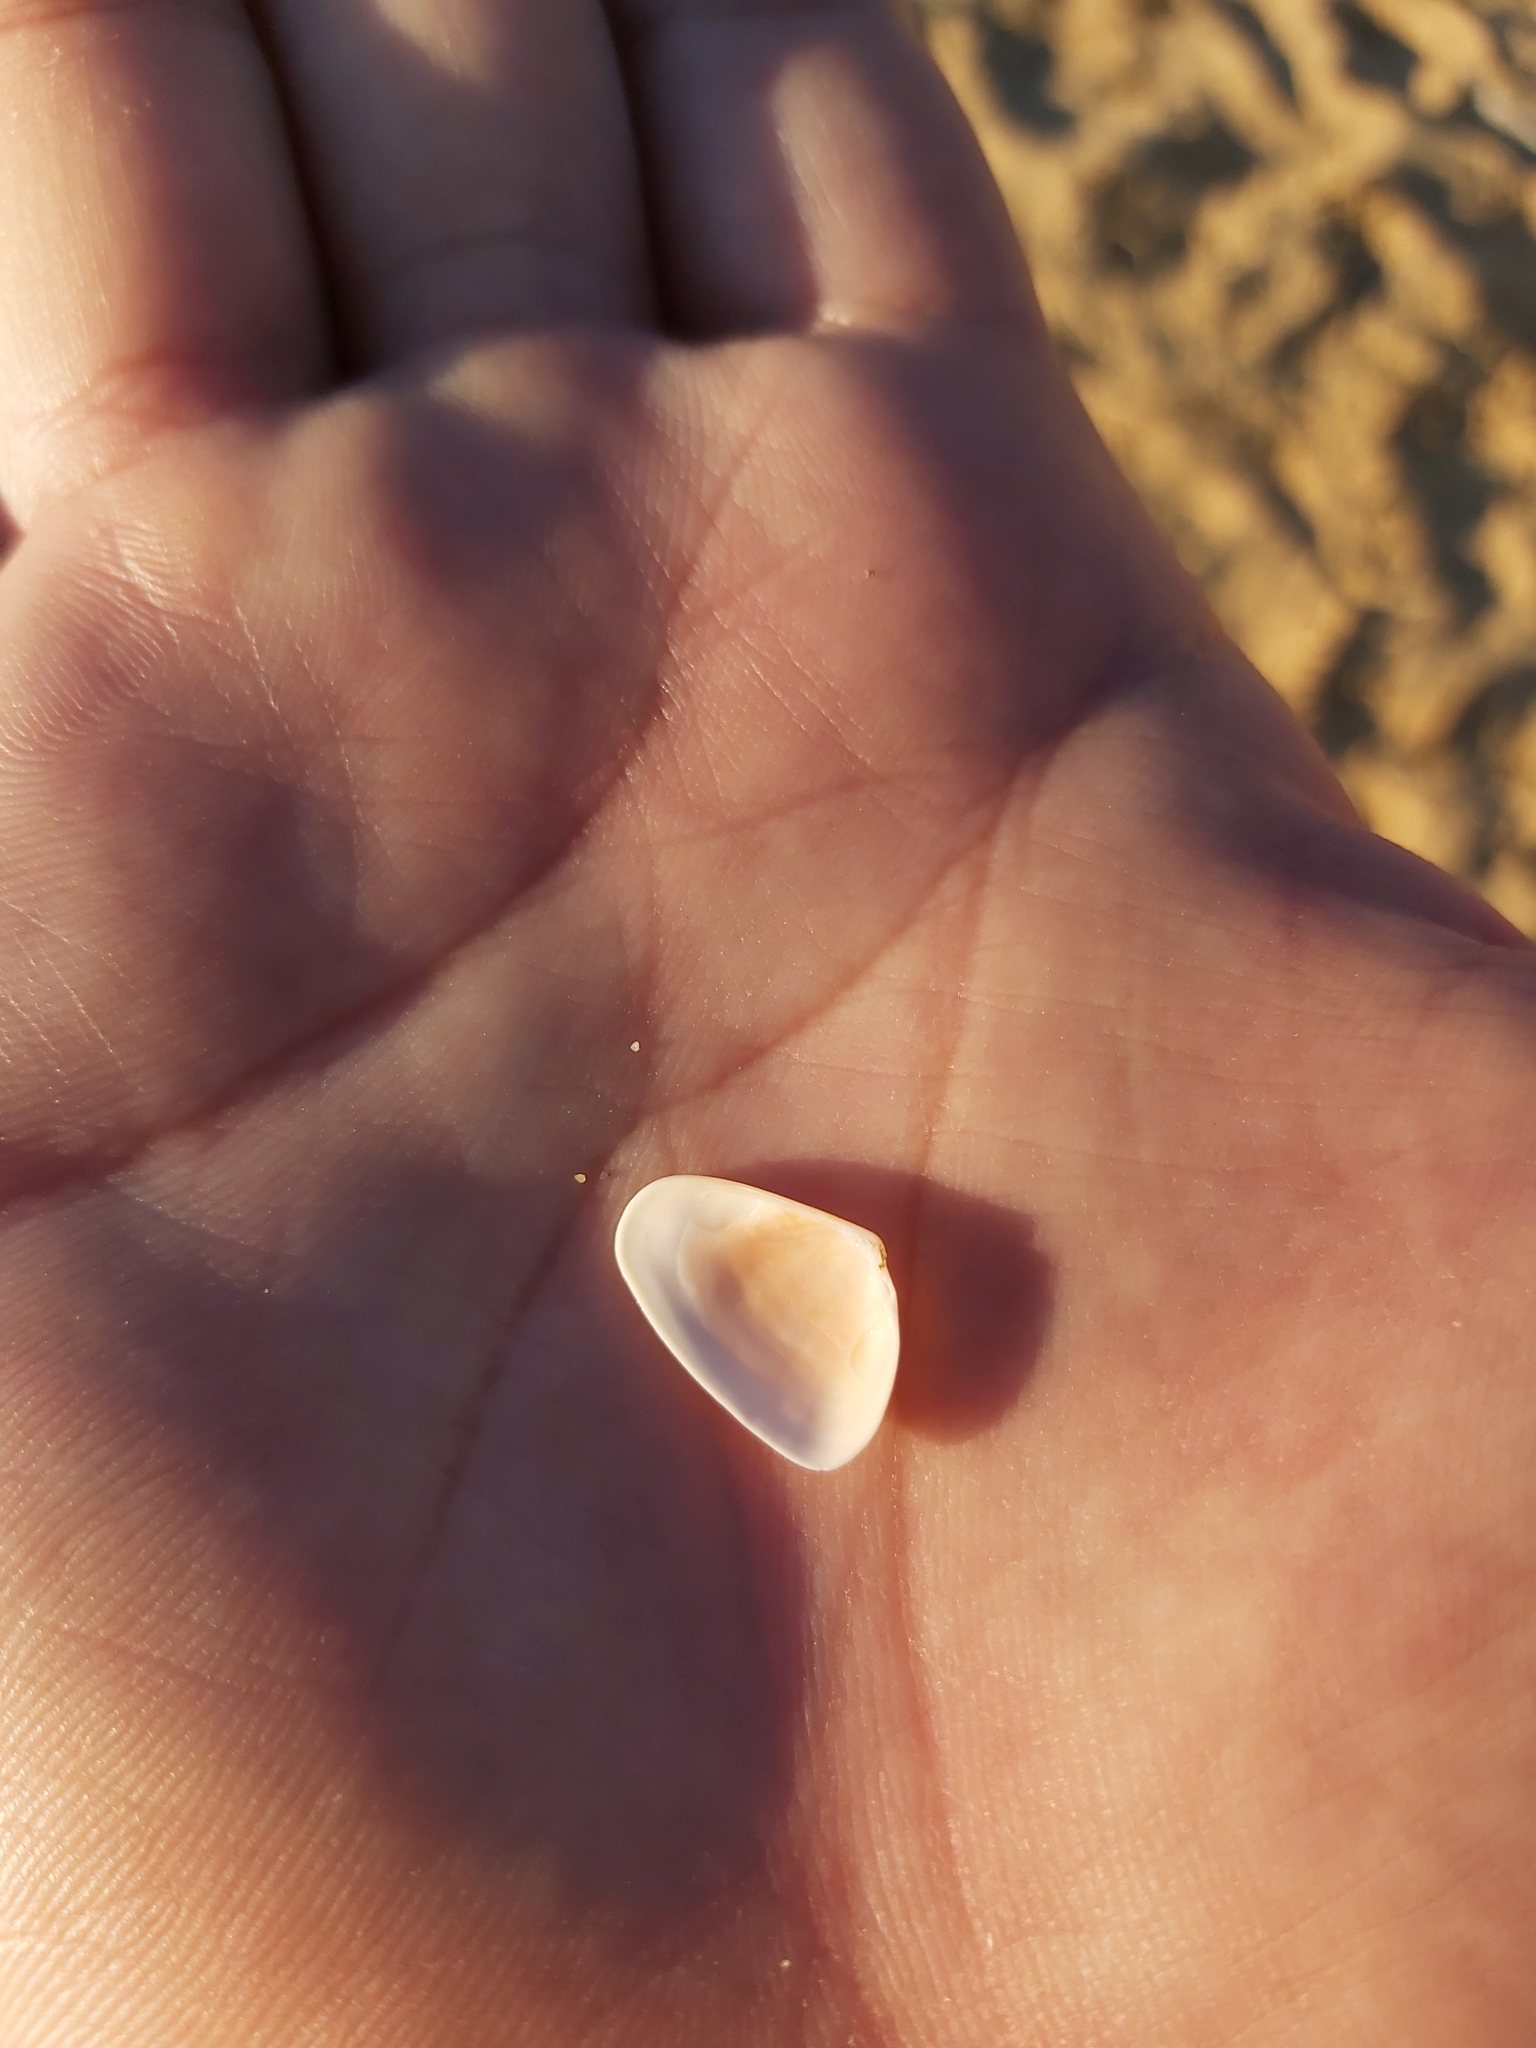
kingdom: Animalia
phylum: Mollusca
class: Bivalvia
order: Cardiida
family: Donacidae
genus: Latona
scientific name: Latona deltoides
